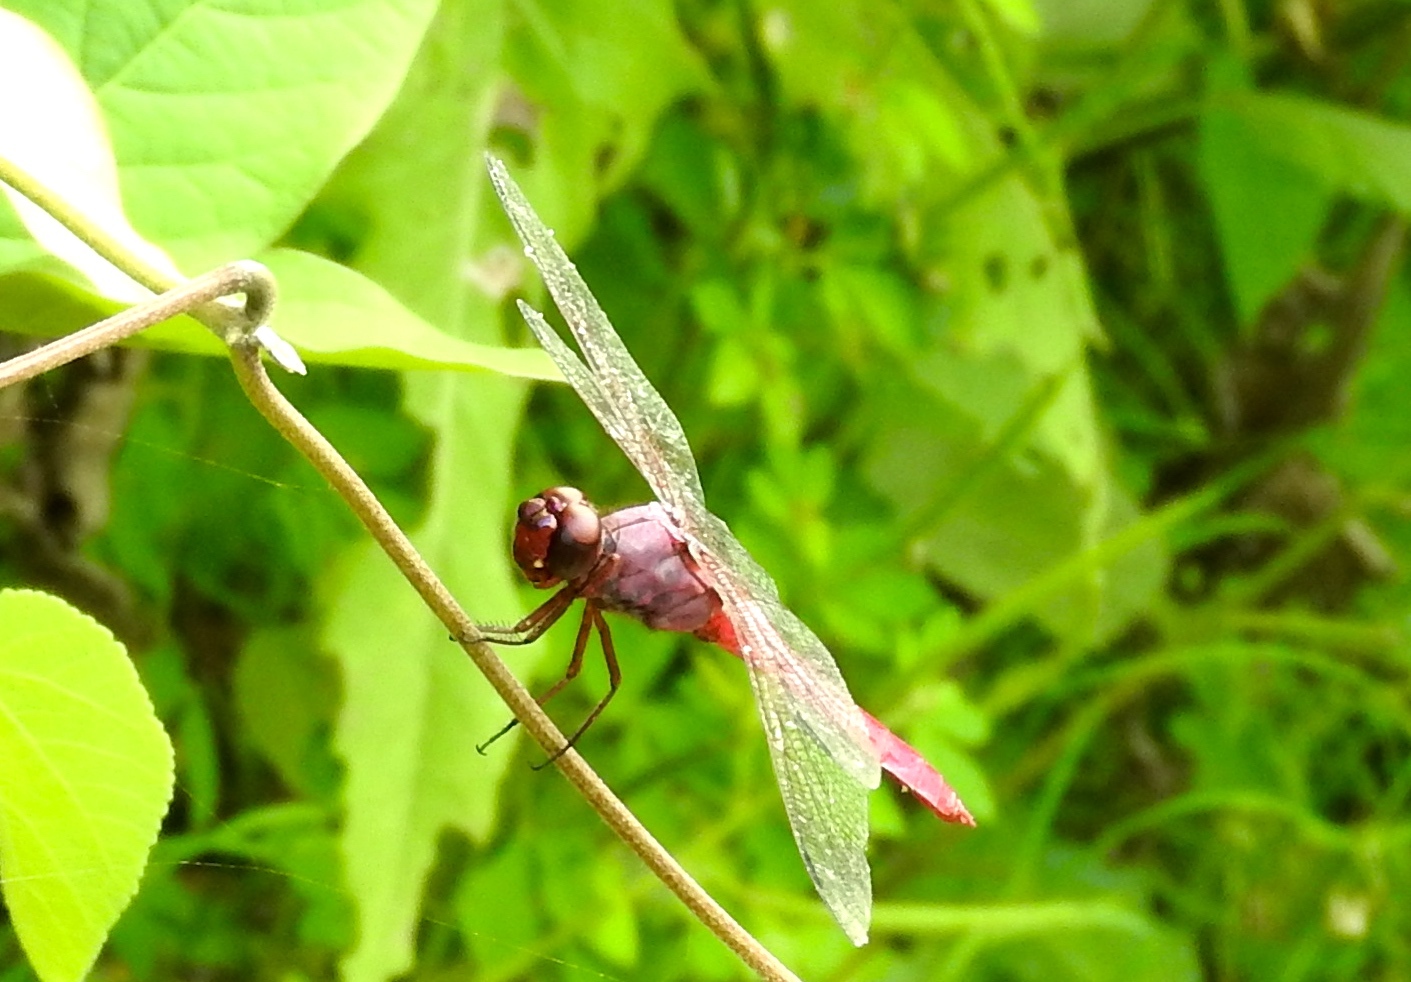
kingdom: Animalia
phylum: Arthropoda
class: Insecta
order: Odonata
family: Libellulidae
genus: Orthemis
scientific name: Orthemis ferruginea
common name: Roseate skimmer
